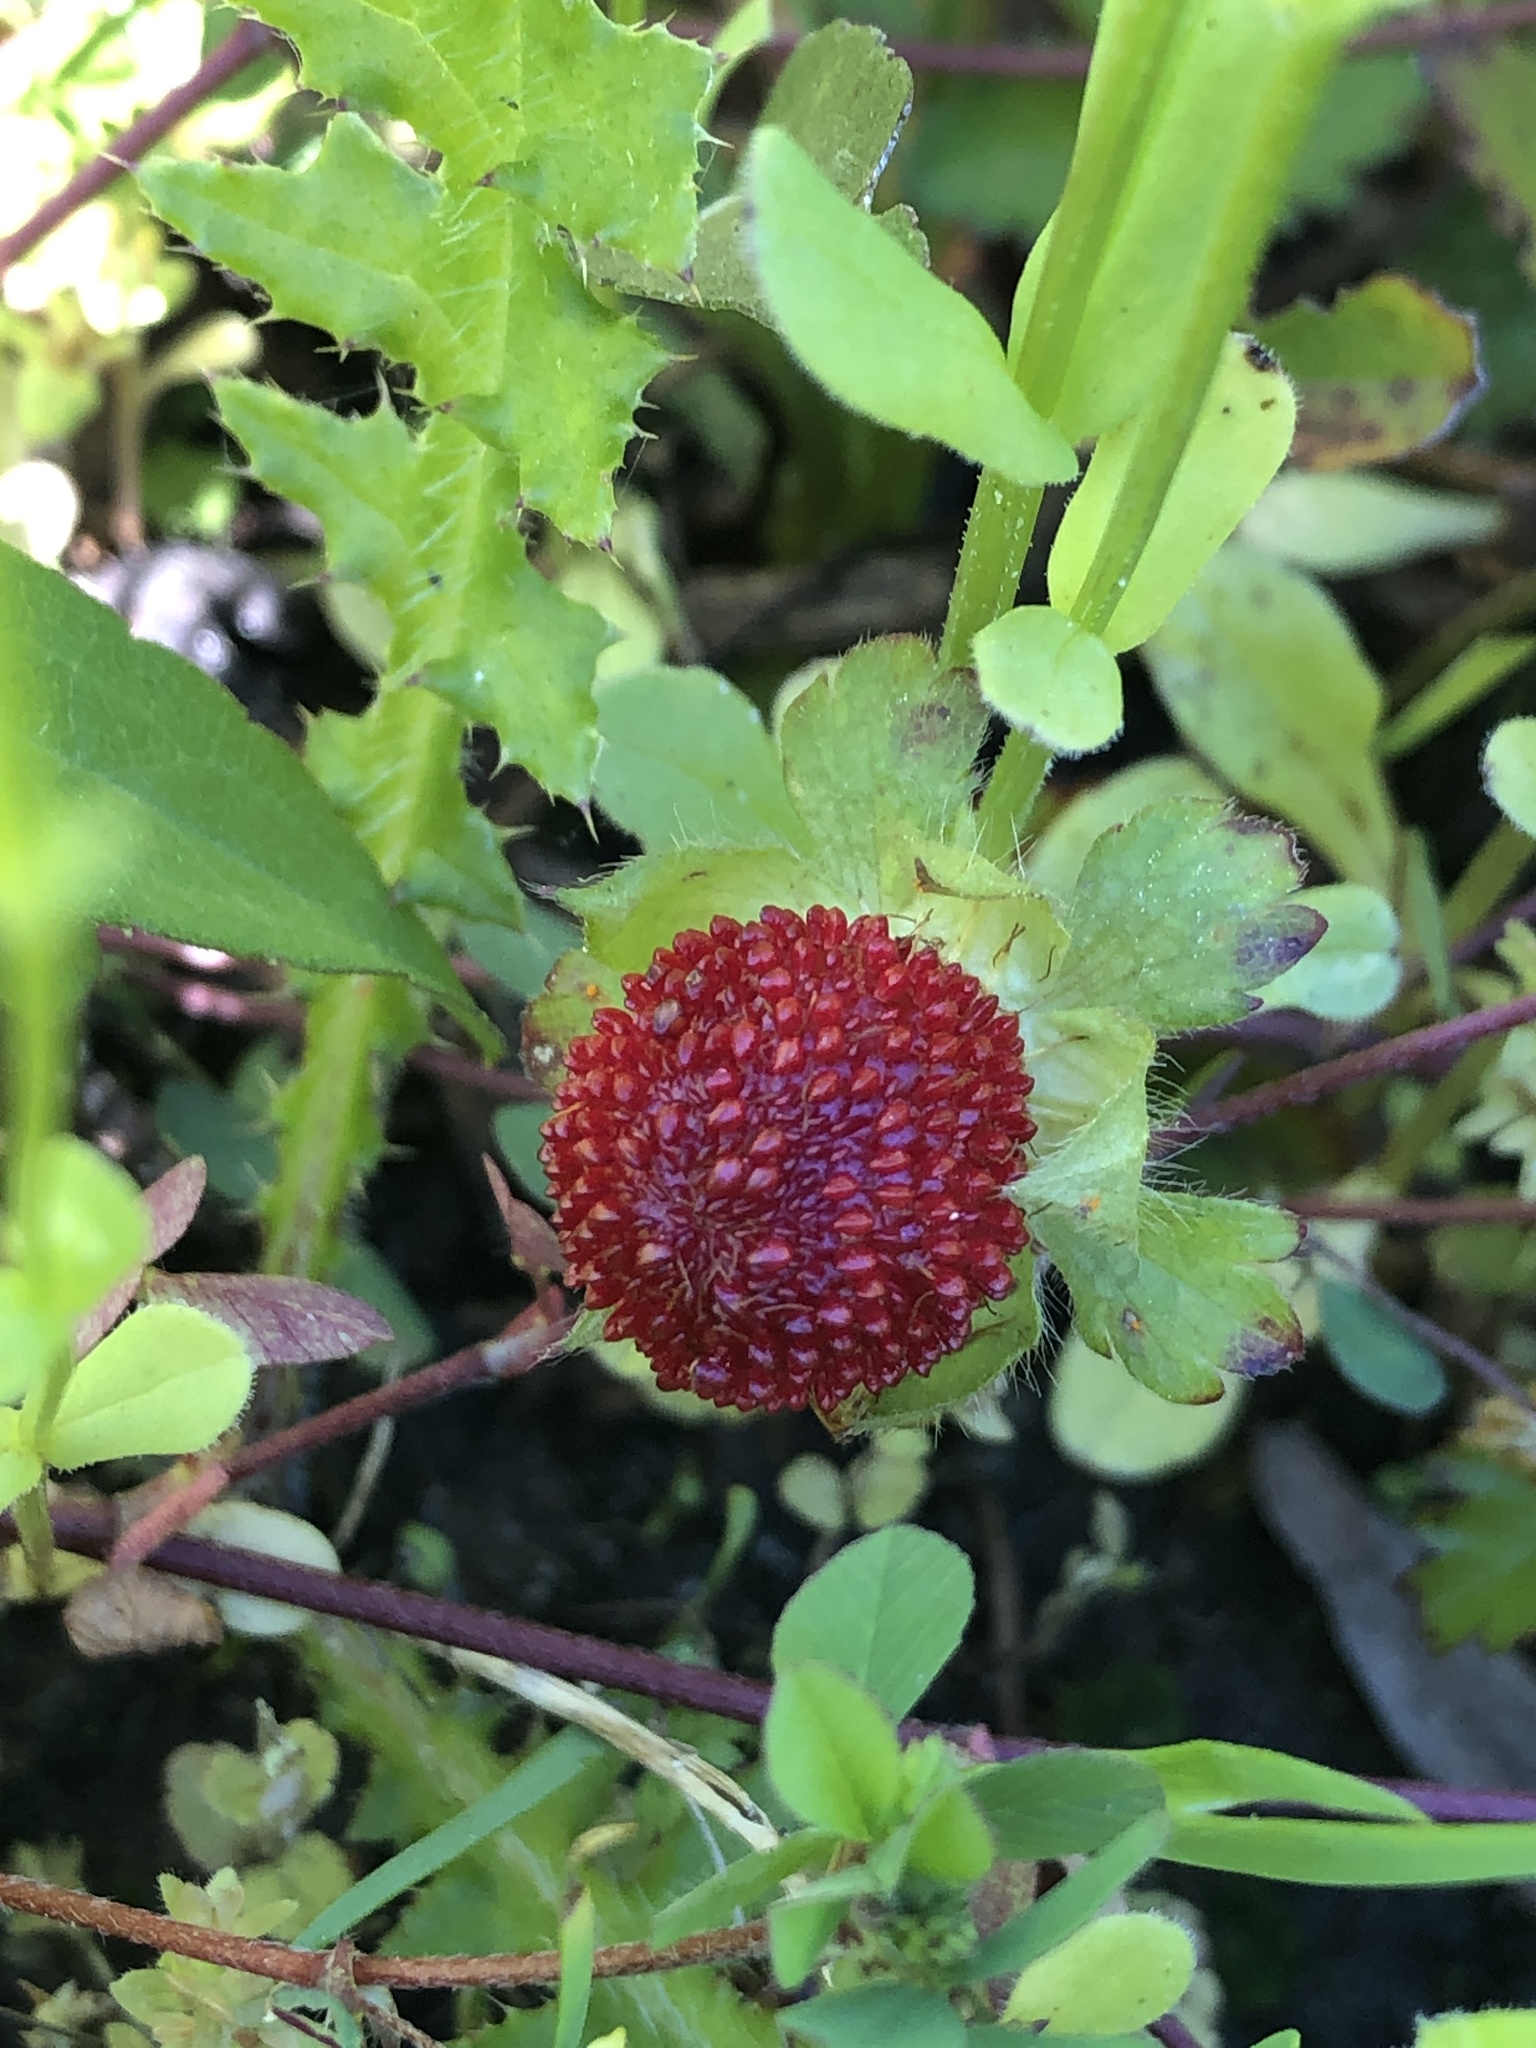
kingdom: Plantae
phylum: Tracheophyta
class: Magnoliopsida
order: Rosales
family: Rosaceae
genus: Potentilla
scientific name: Potentilla indica
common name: Yellow-flowered strawberry
